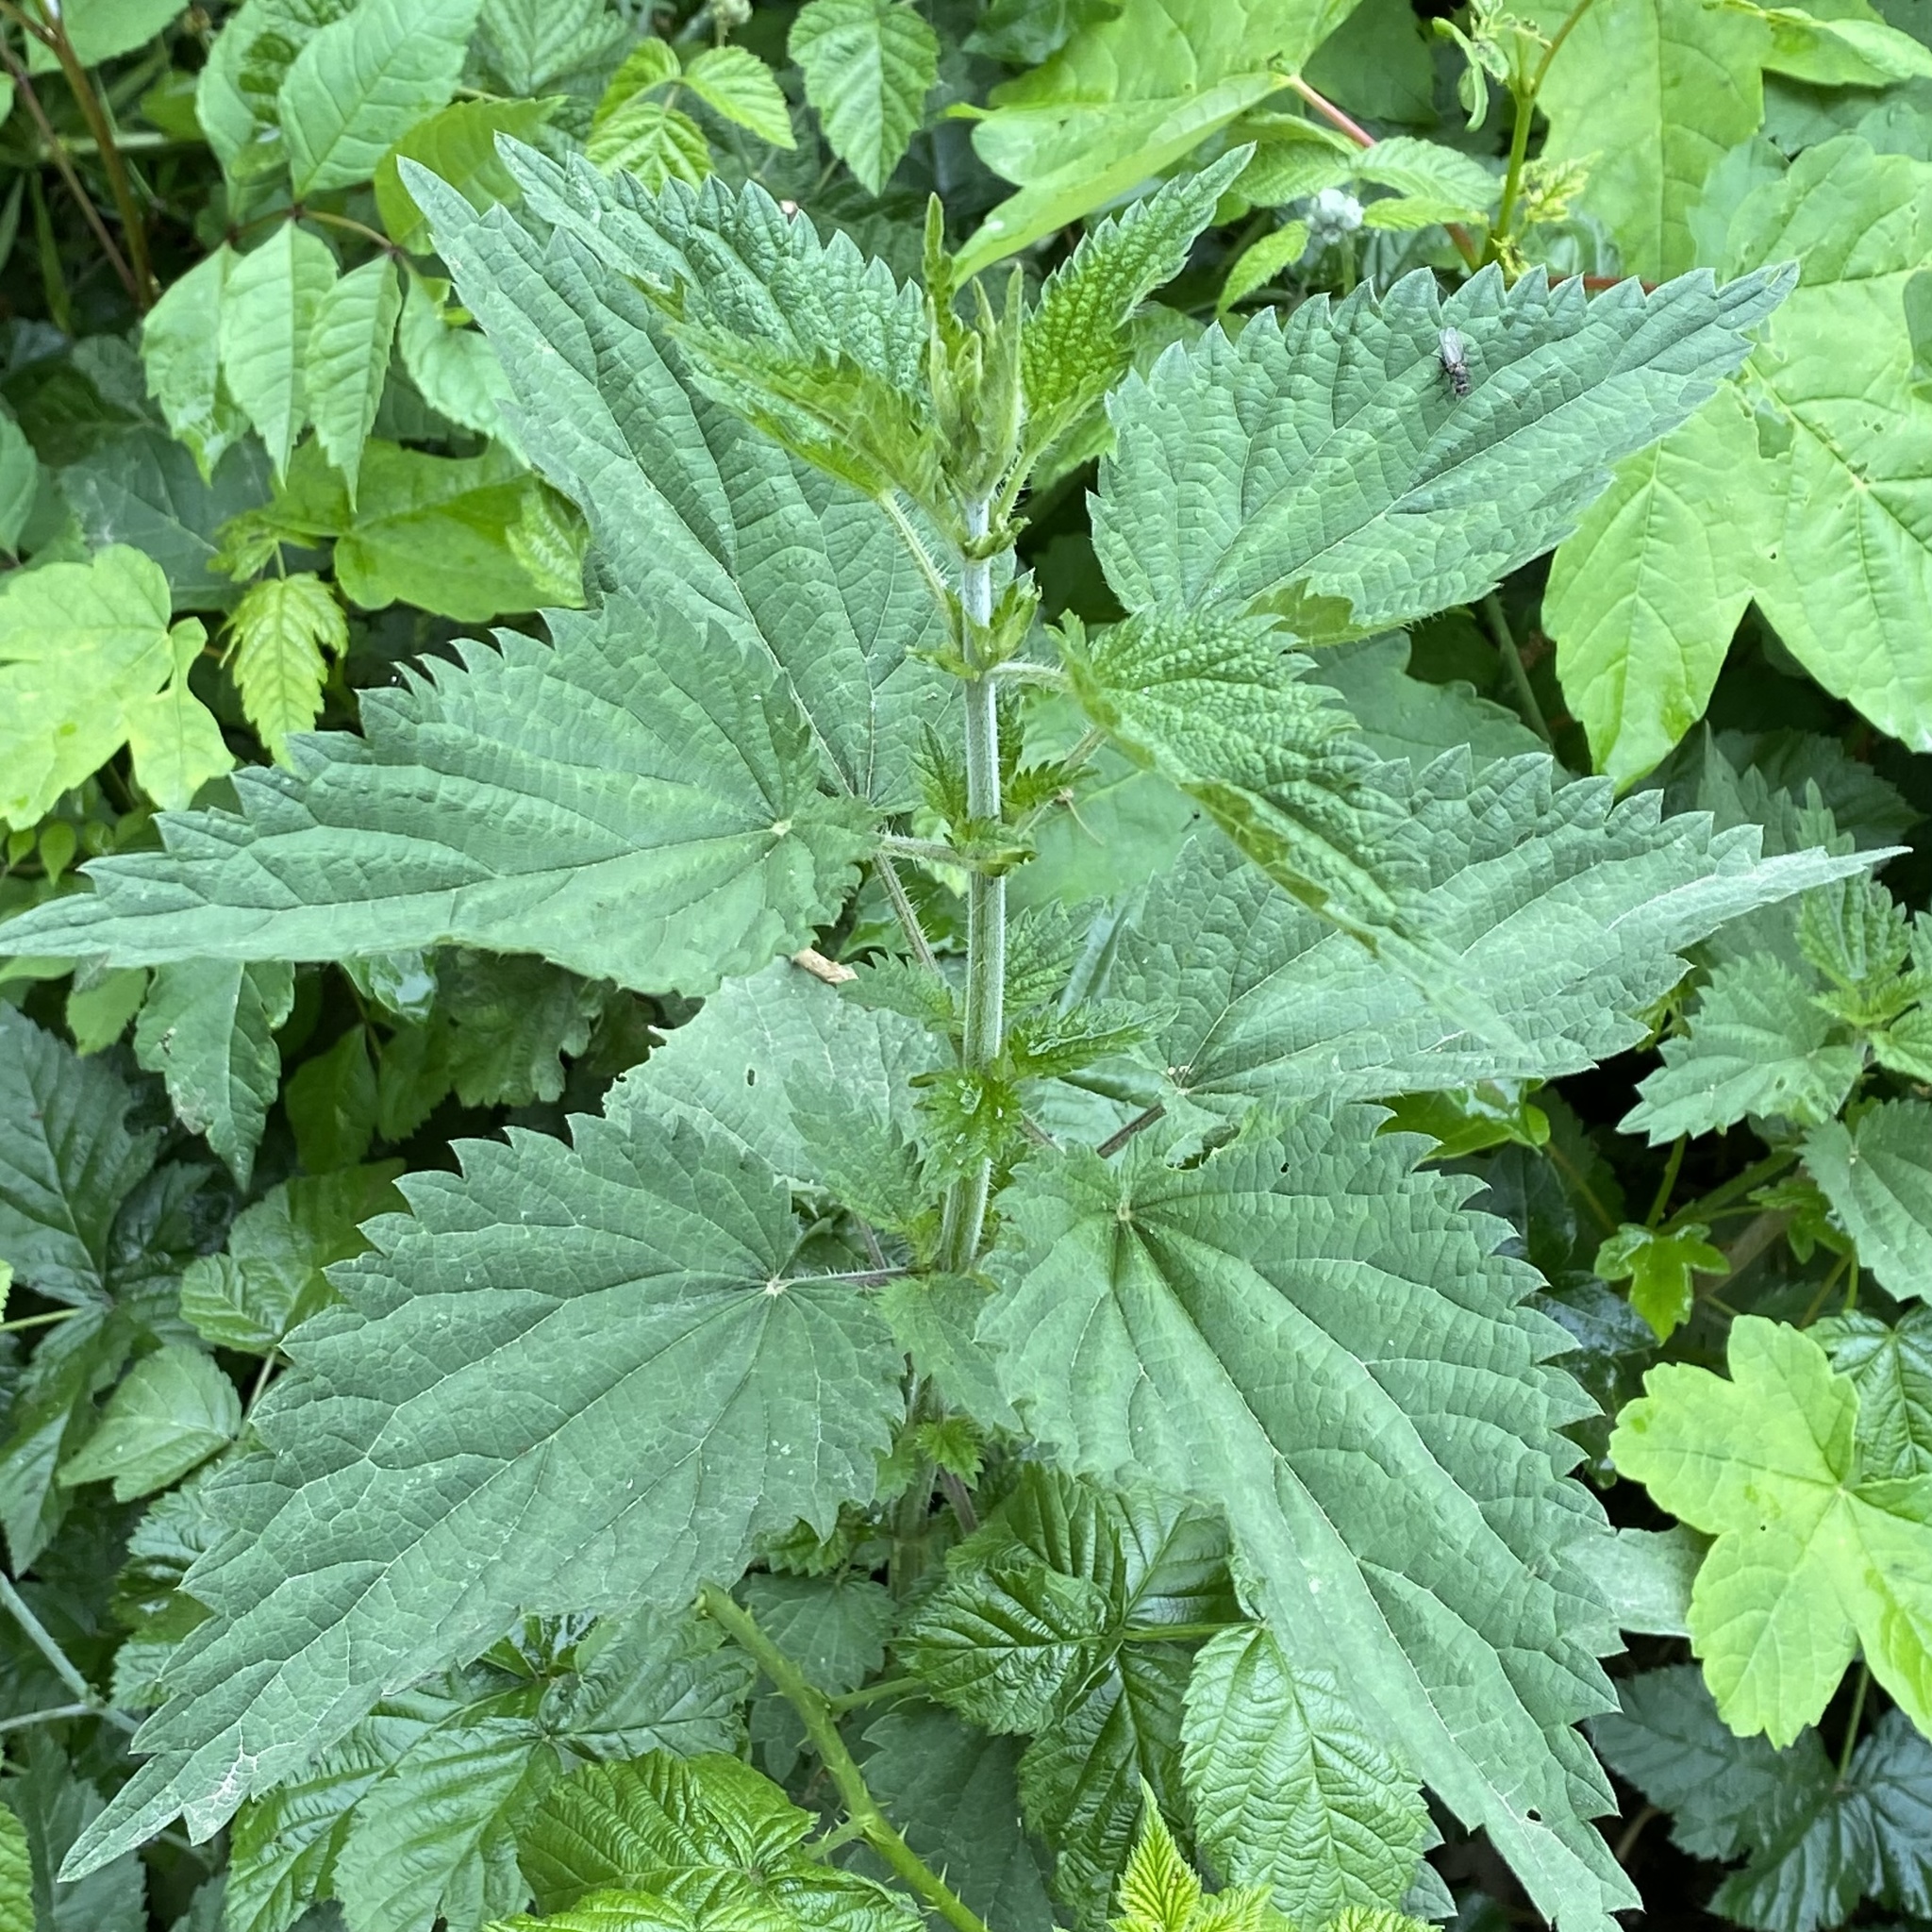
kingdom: Plantae
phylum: Tracheophyta
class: Magnoliopsida
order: Rosales
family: Urticaceae
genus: Urtica
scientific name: Urtica dioica
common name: Common nettle
